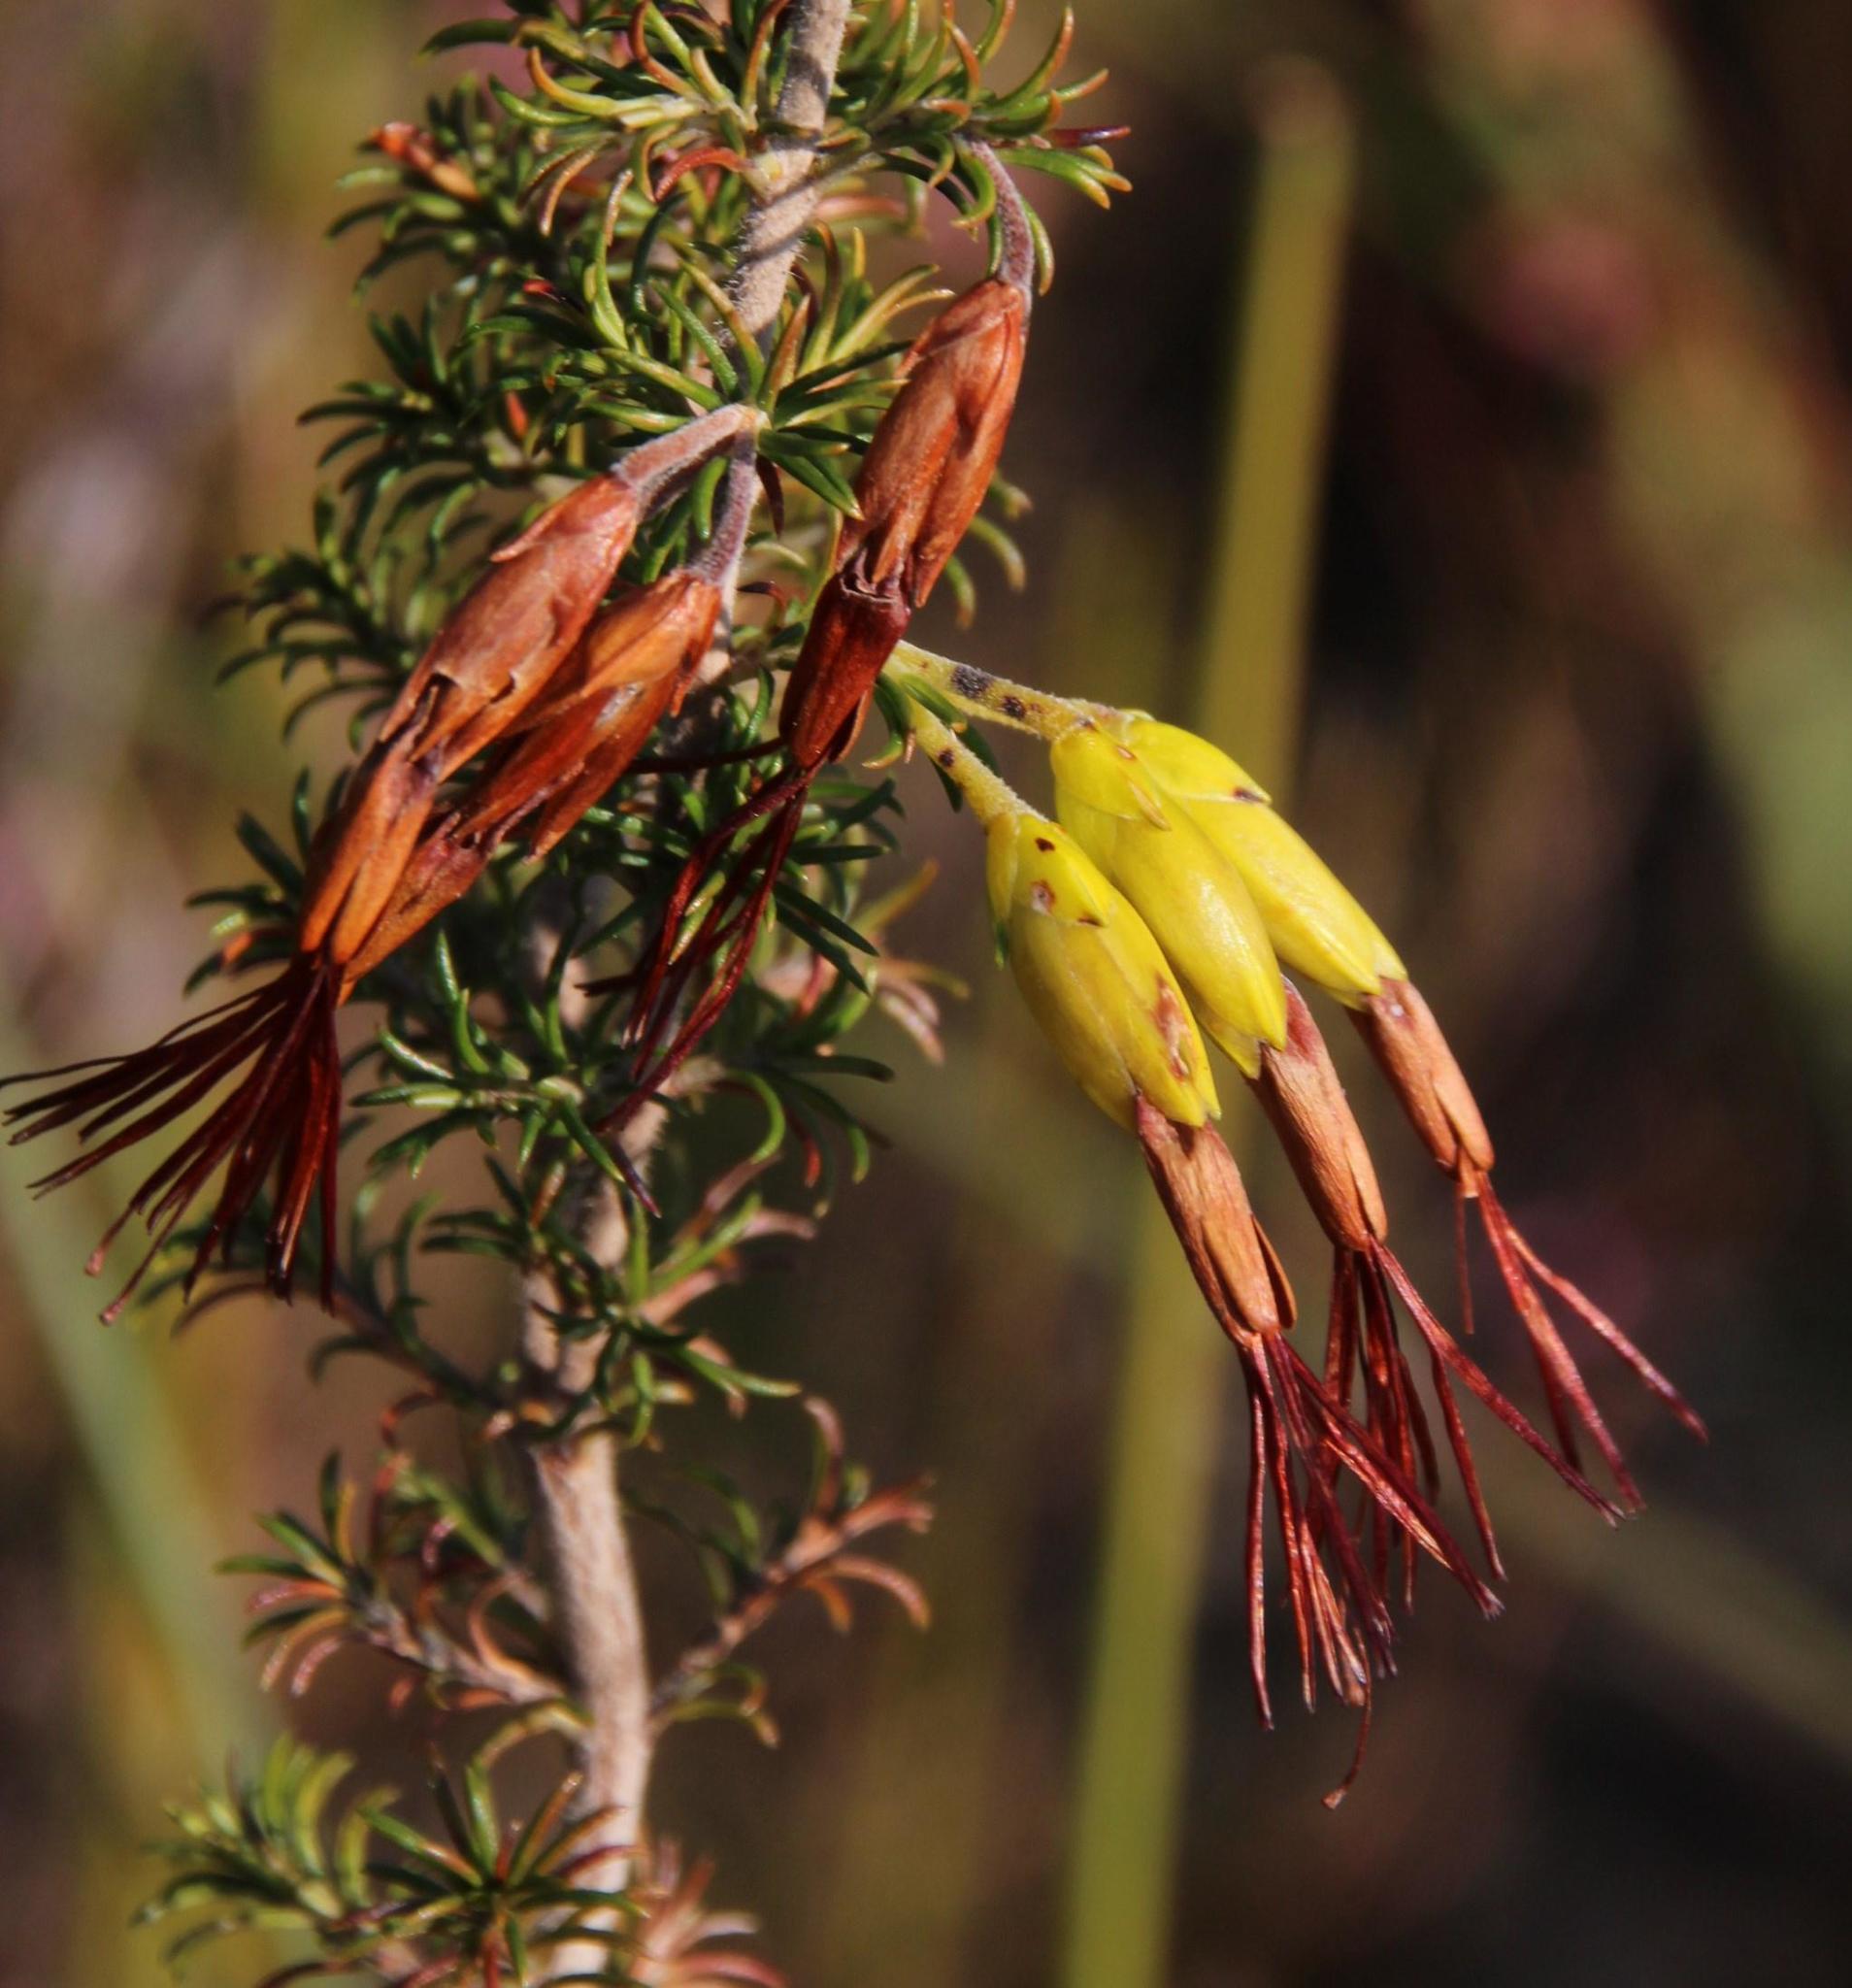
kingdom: Plantae
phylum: Tracheophyta
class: Magnoliopsida
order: Ericales
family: Ericaceae
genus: Erica
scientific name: Erica coccinea
